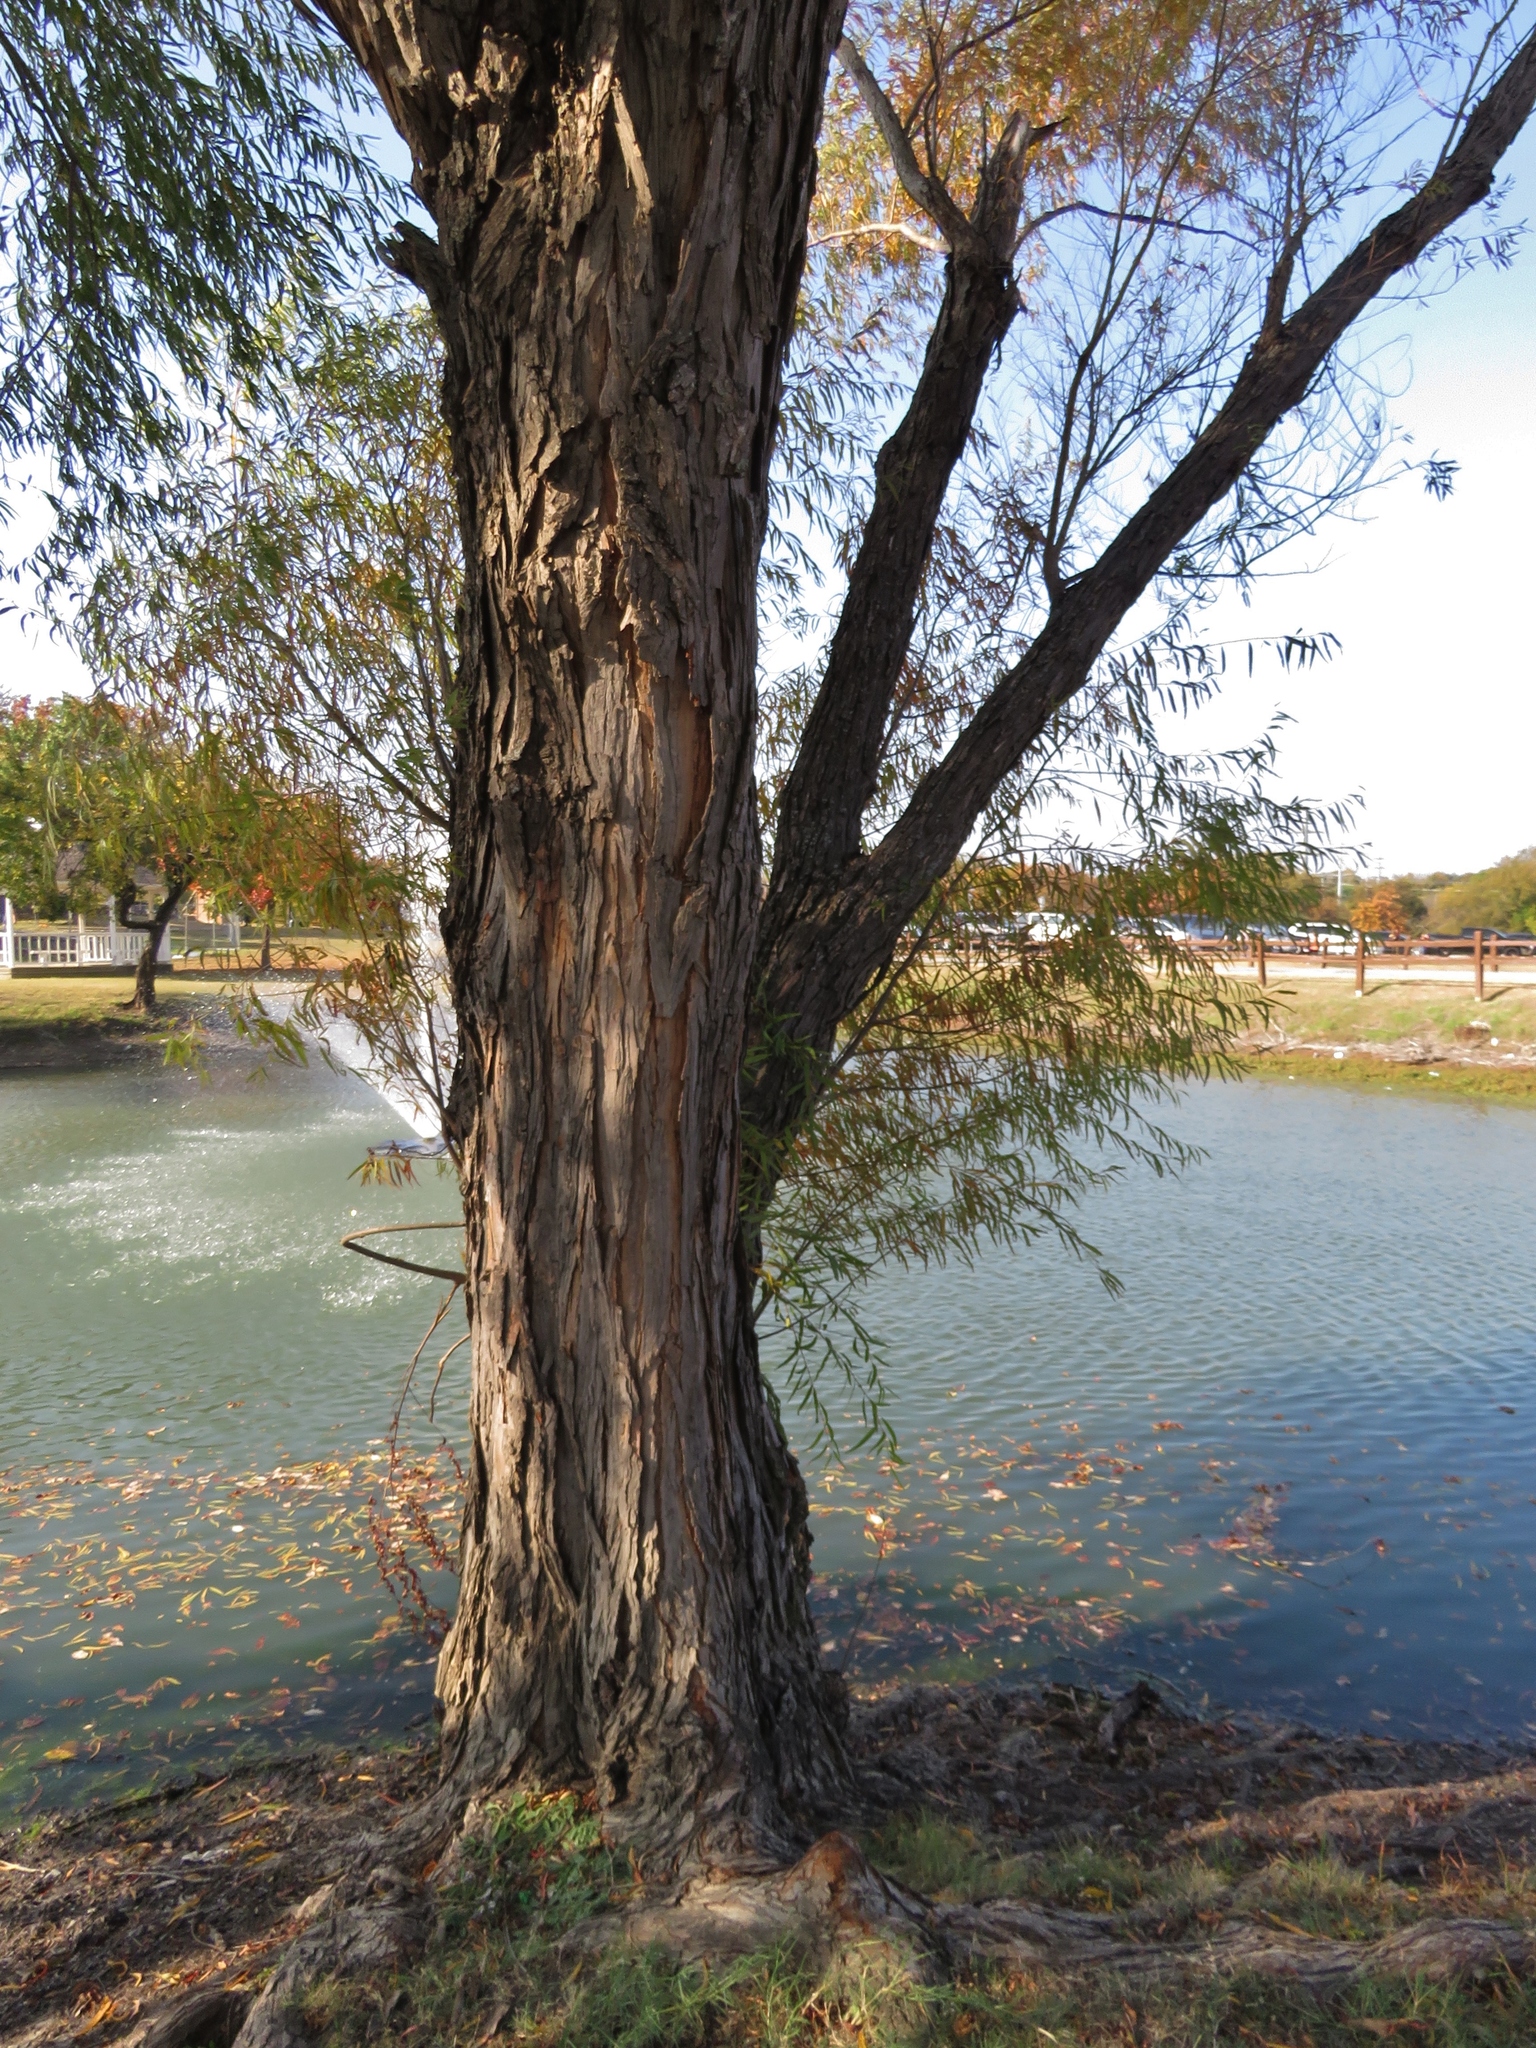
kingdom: Plantae
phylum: Tracheophyta
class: Magnoliopsida
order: Malpighiales
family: Salicaceae
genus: Salix
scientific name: Salix nigra
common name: Black willow
